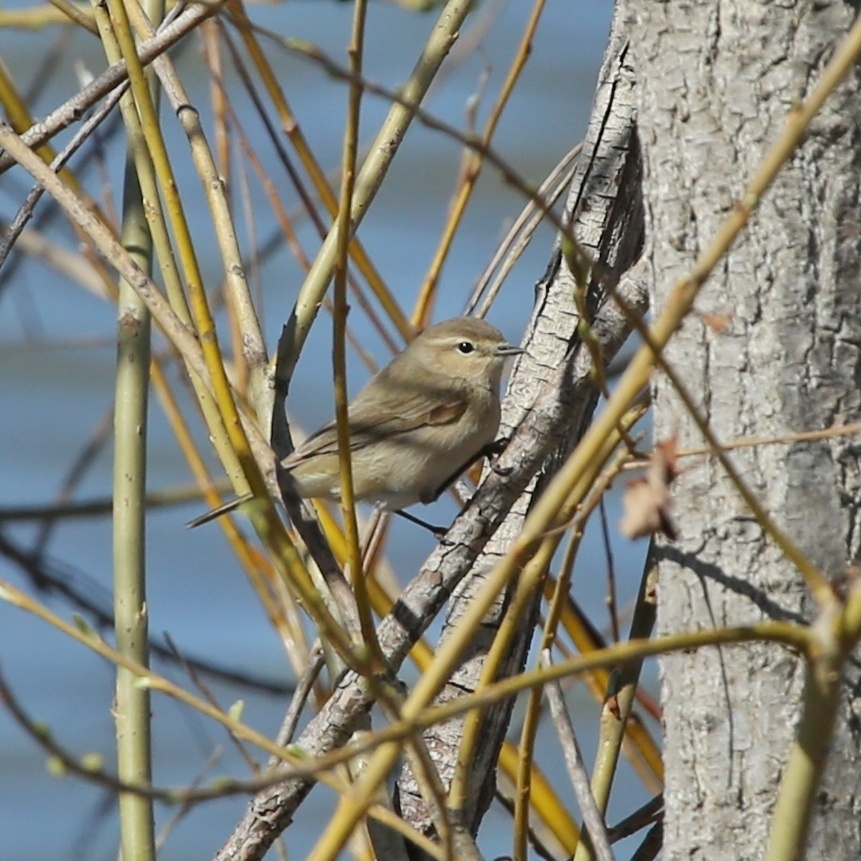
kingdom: Animalia
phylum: Chordata
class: Aves
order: Passeriformes
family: Phylloscopidae
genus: Phylloscopus
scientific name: Phylloscopus collybita
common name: Common chiffchaff
